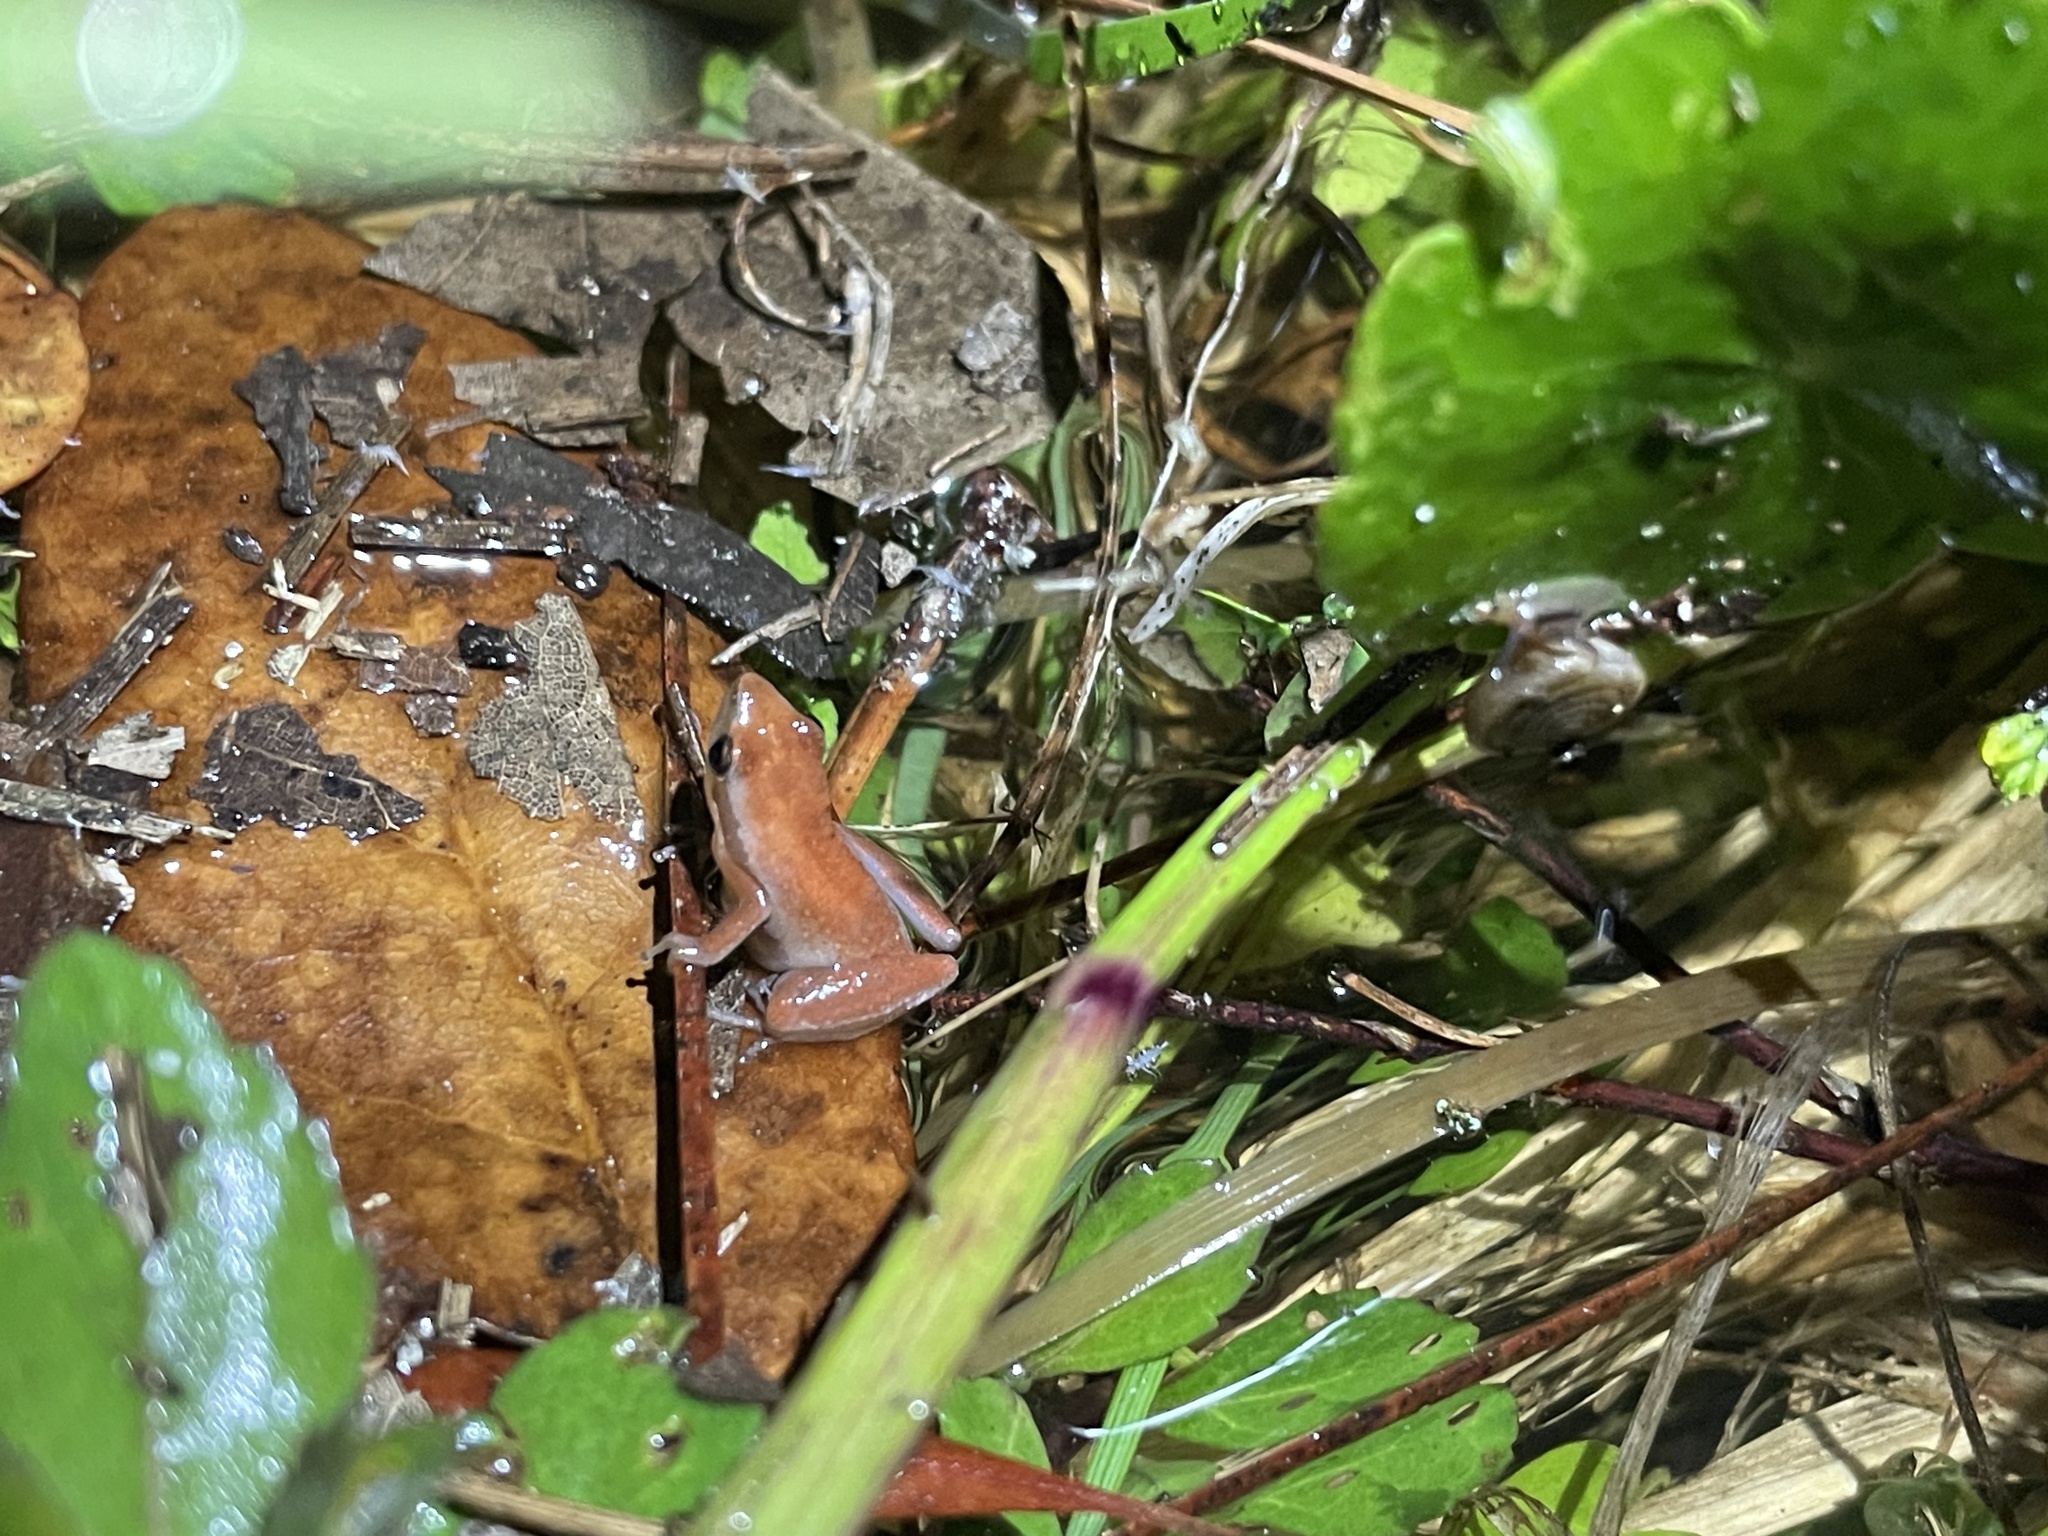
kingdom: Animalia
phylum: Chordata
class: Amphibia
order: Anura
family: Hylidae
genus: Pseudacris
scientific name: Pseudacris ocularis
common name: Little grass frog
